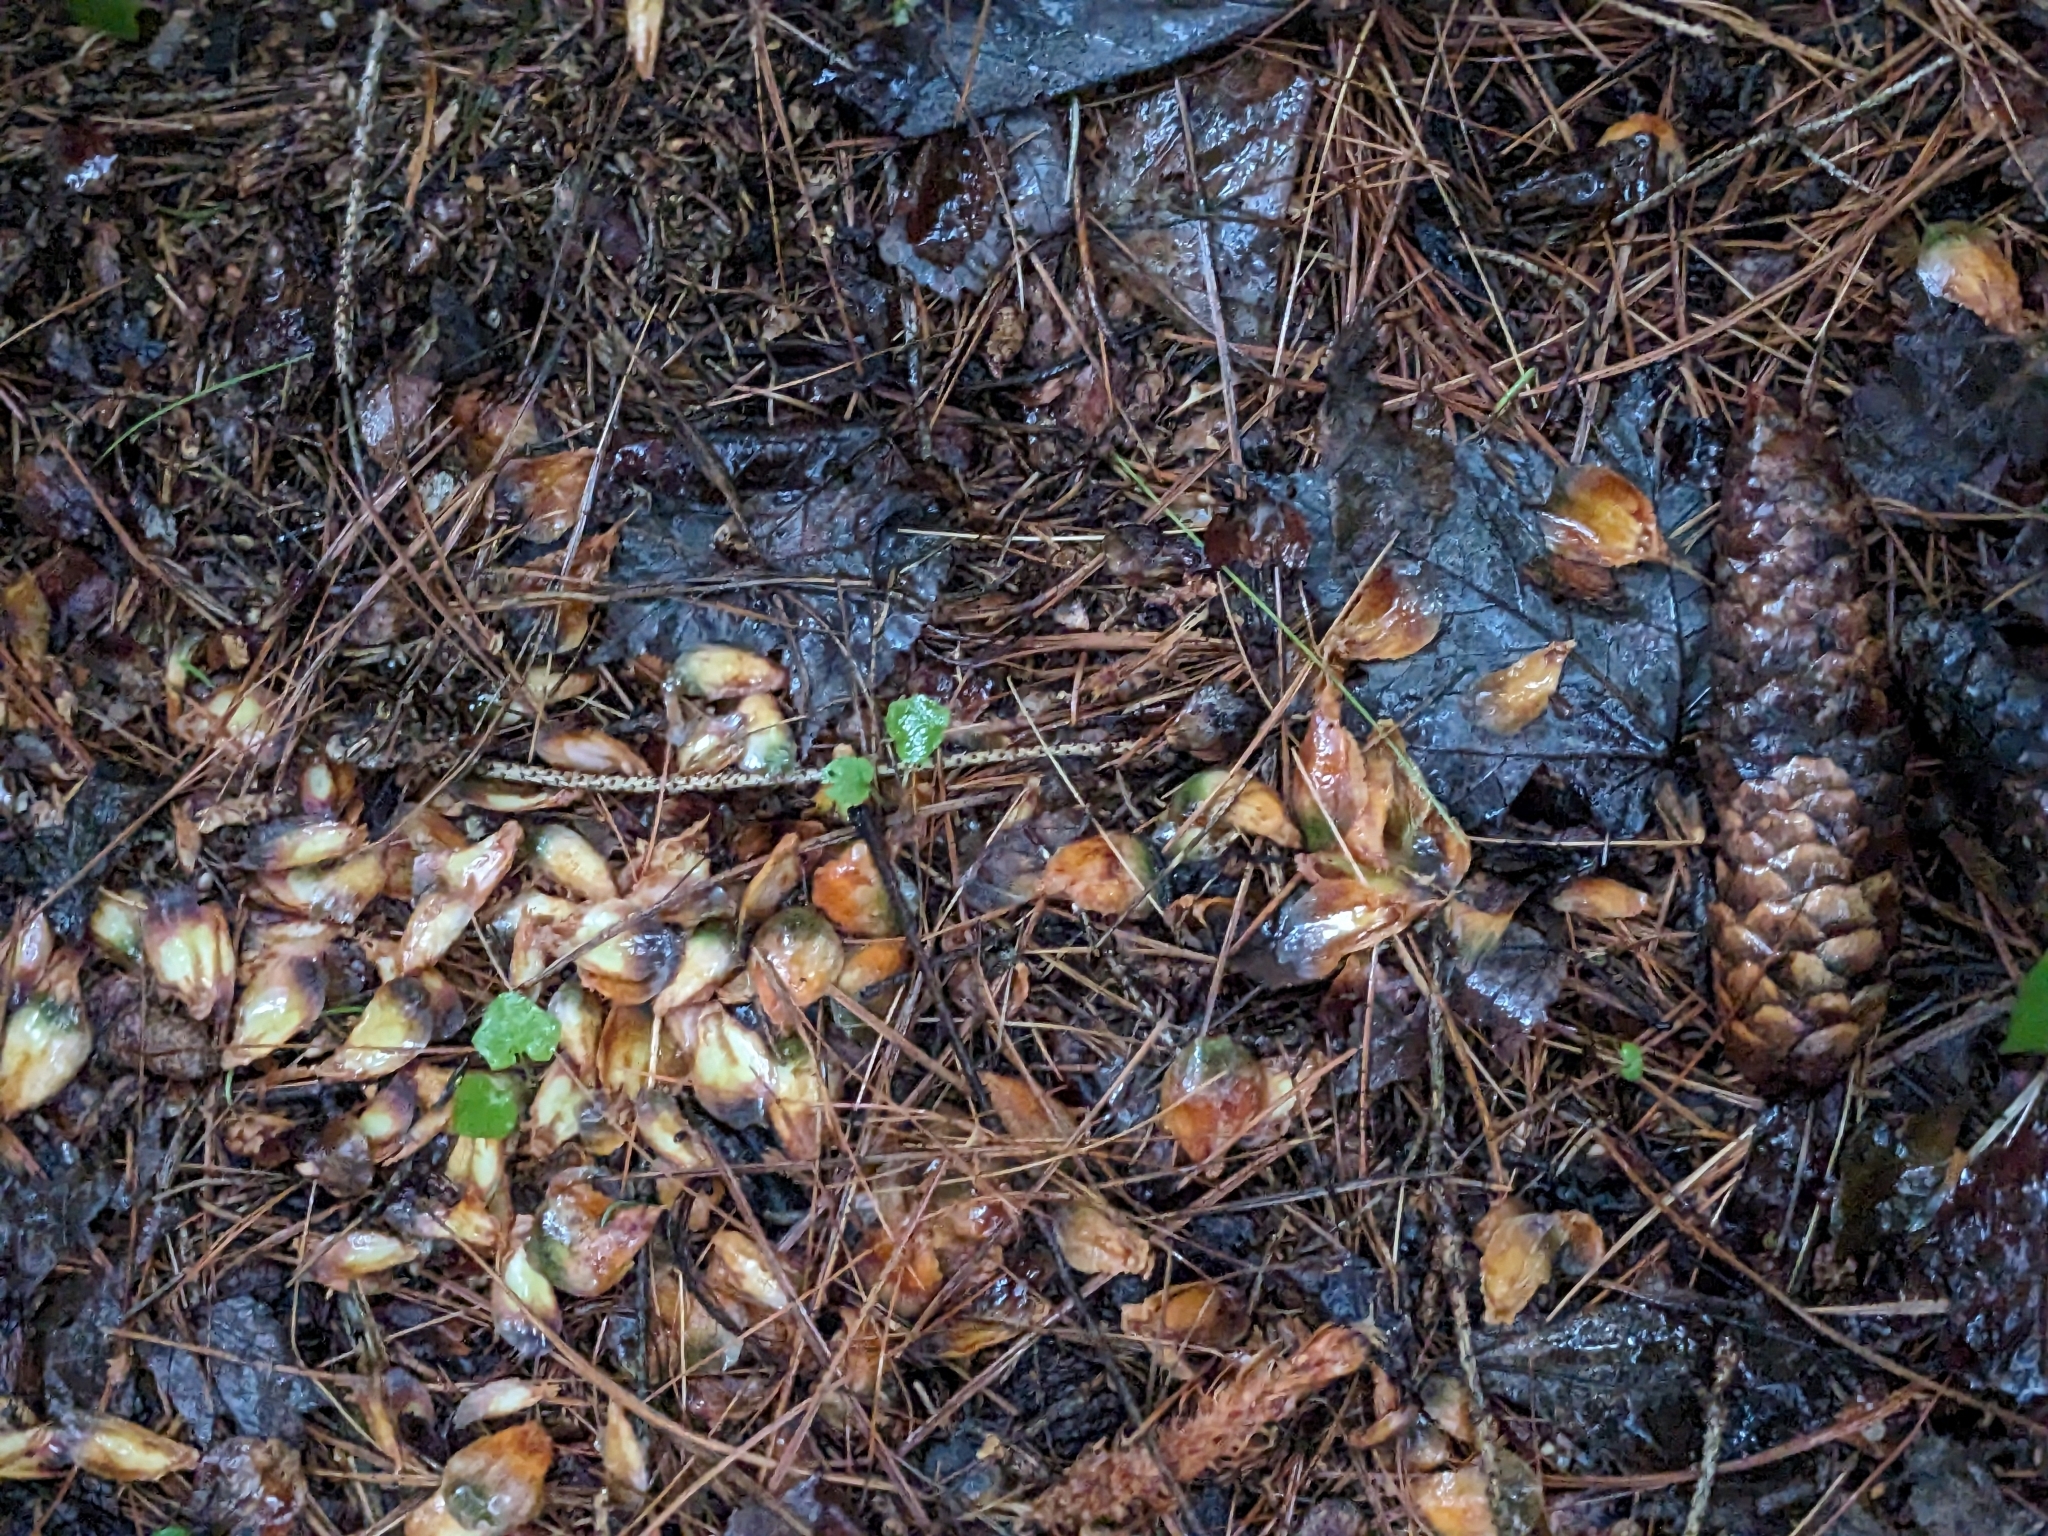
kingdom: Plantae
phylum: Tracheophyta
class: Pinopsida
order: Pinales
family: Pinaceae
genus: Picea
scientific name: Picea abies
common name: Norway spruce
